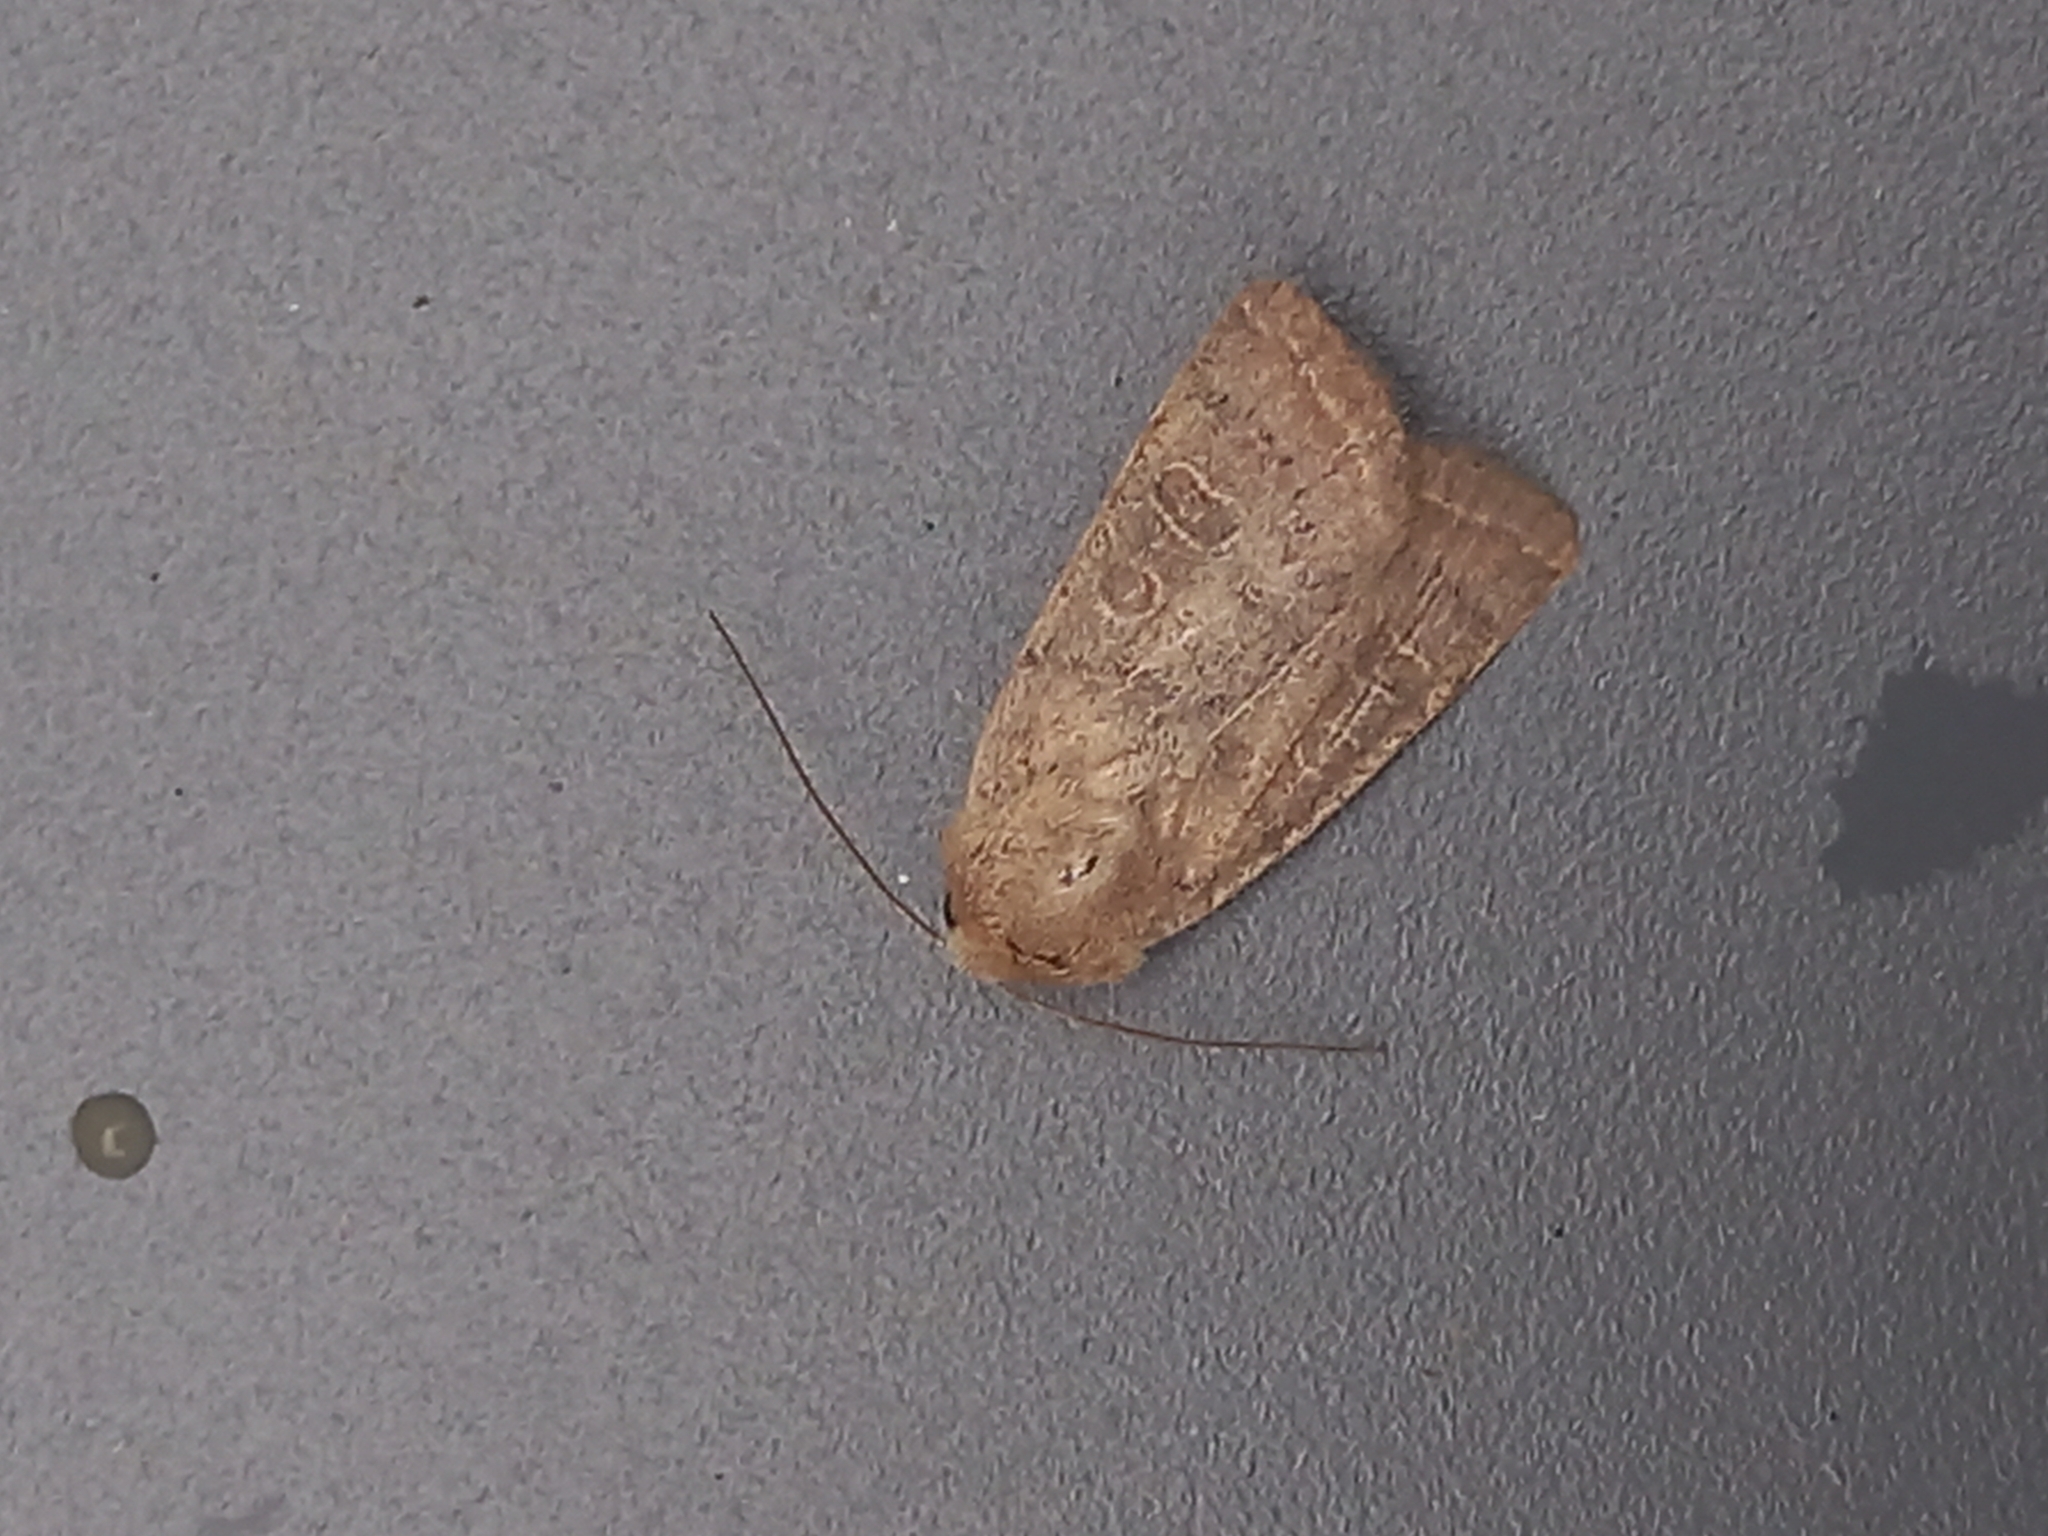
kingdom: Animalia
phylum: Arthropoda
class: Insecta
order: Lepidoptera
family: Noctuidae
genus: Hoplodrina
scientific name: Hoplodrina ambigua
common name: Vine's rustic
